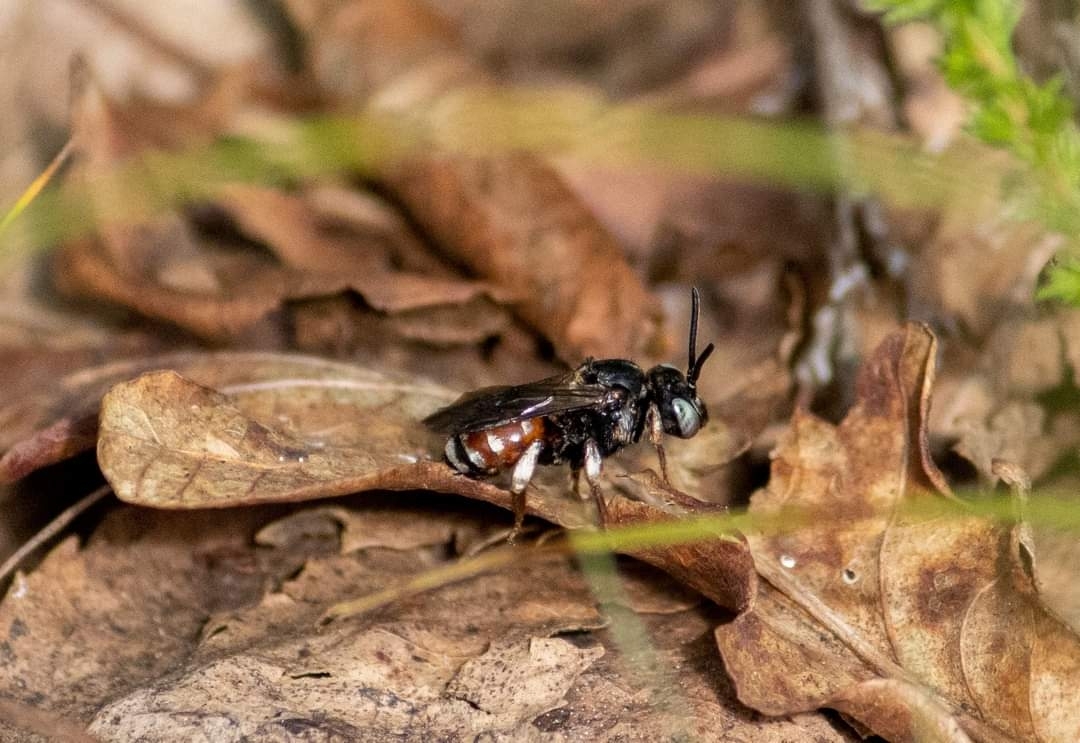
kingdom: Animalia
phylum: Arthropoda
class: Insecta
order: Hymenoptera
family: Apidae
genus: Epeoloides
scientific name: Epeoloides coecutiens
